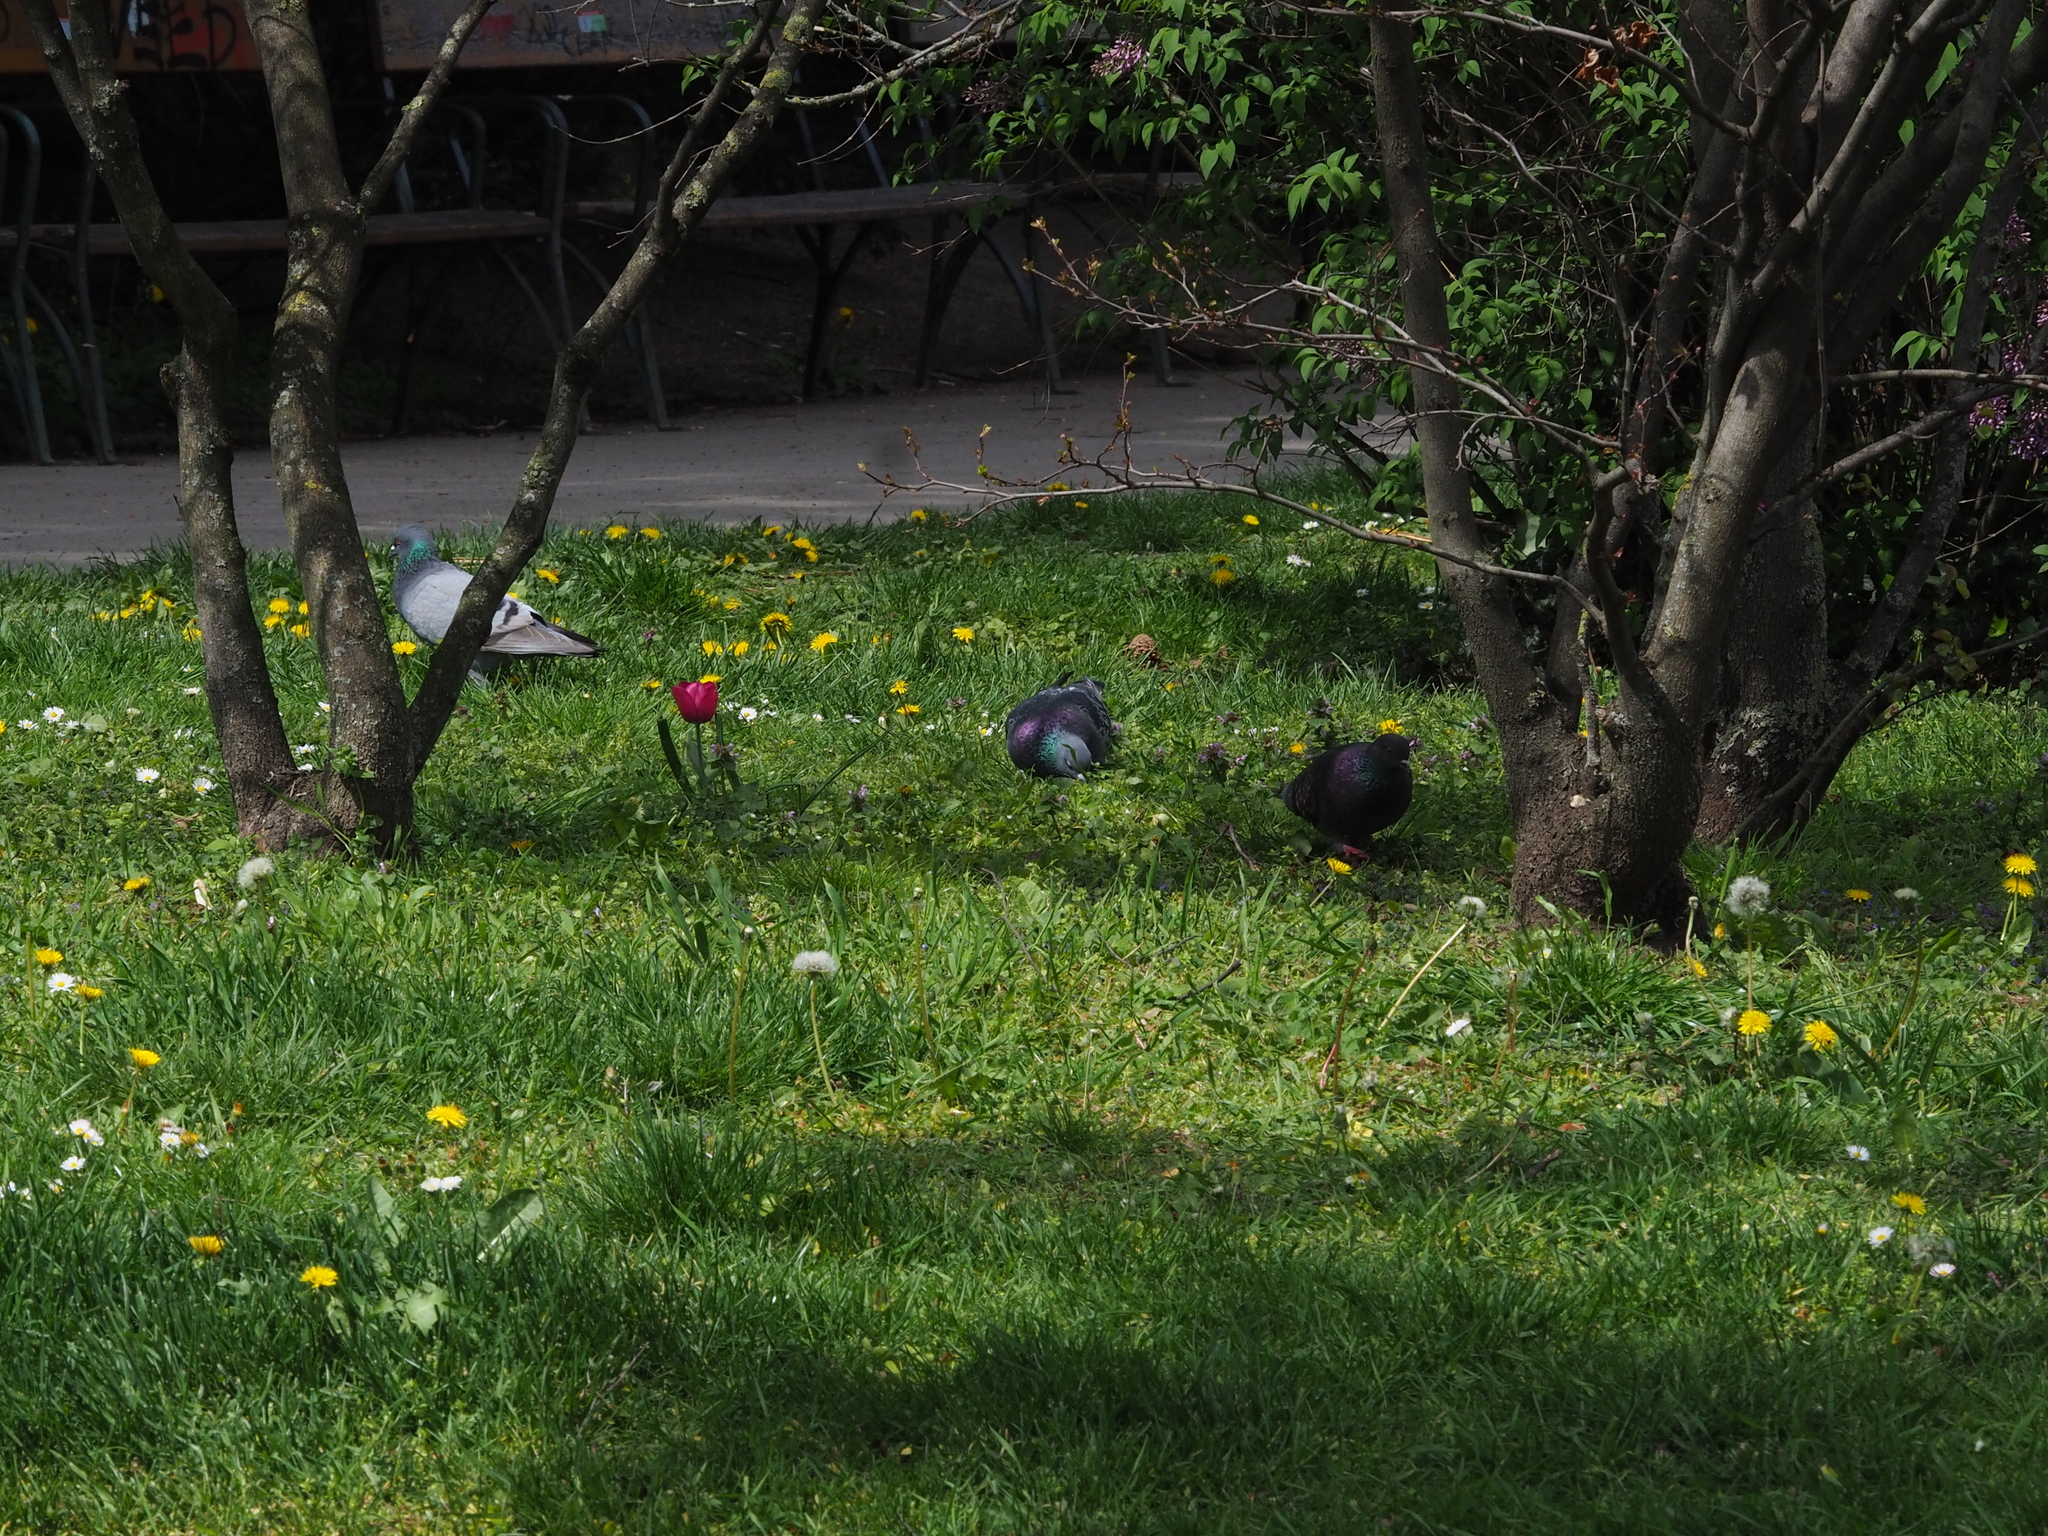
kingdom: Animalia
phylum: Chordata
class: Aves
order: Columbiformes
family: Columbidae
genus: Columba
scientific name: Columba livia
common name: Rock pigeon
